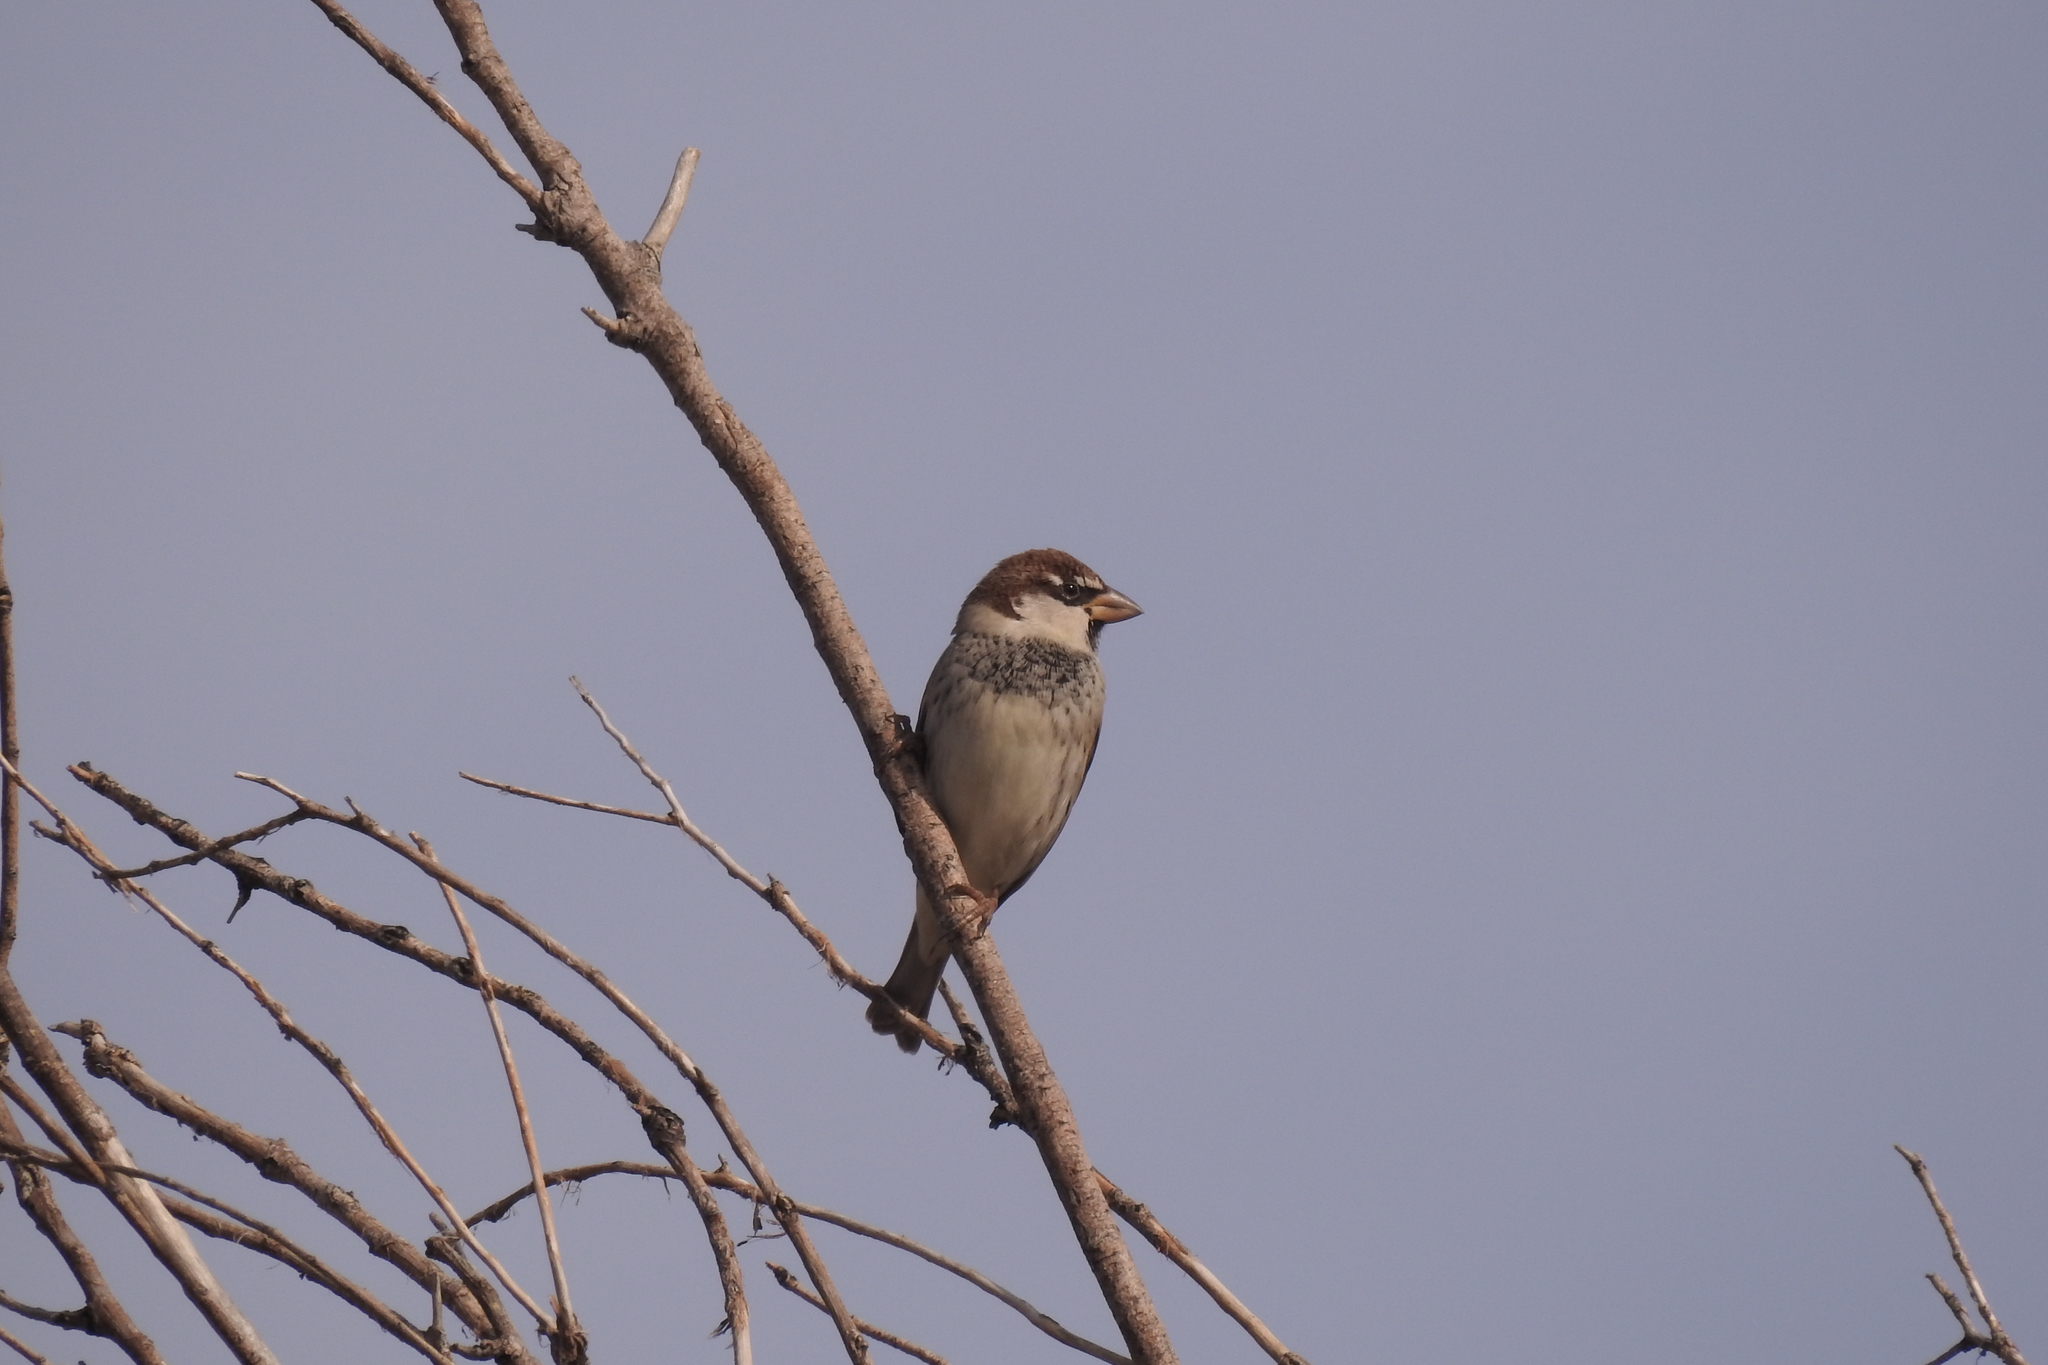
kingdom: Animalia
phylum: Chordata
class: Aves
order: Passeriformes
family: Passeridae
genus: Passer
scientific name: Passer hispaniolensis
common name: Spanish sparrow
